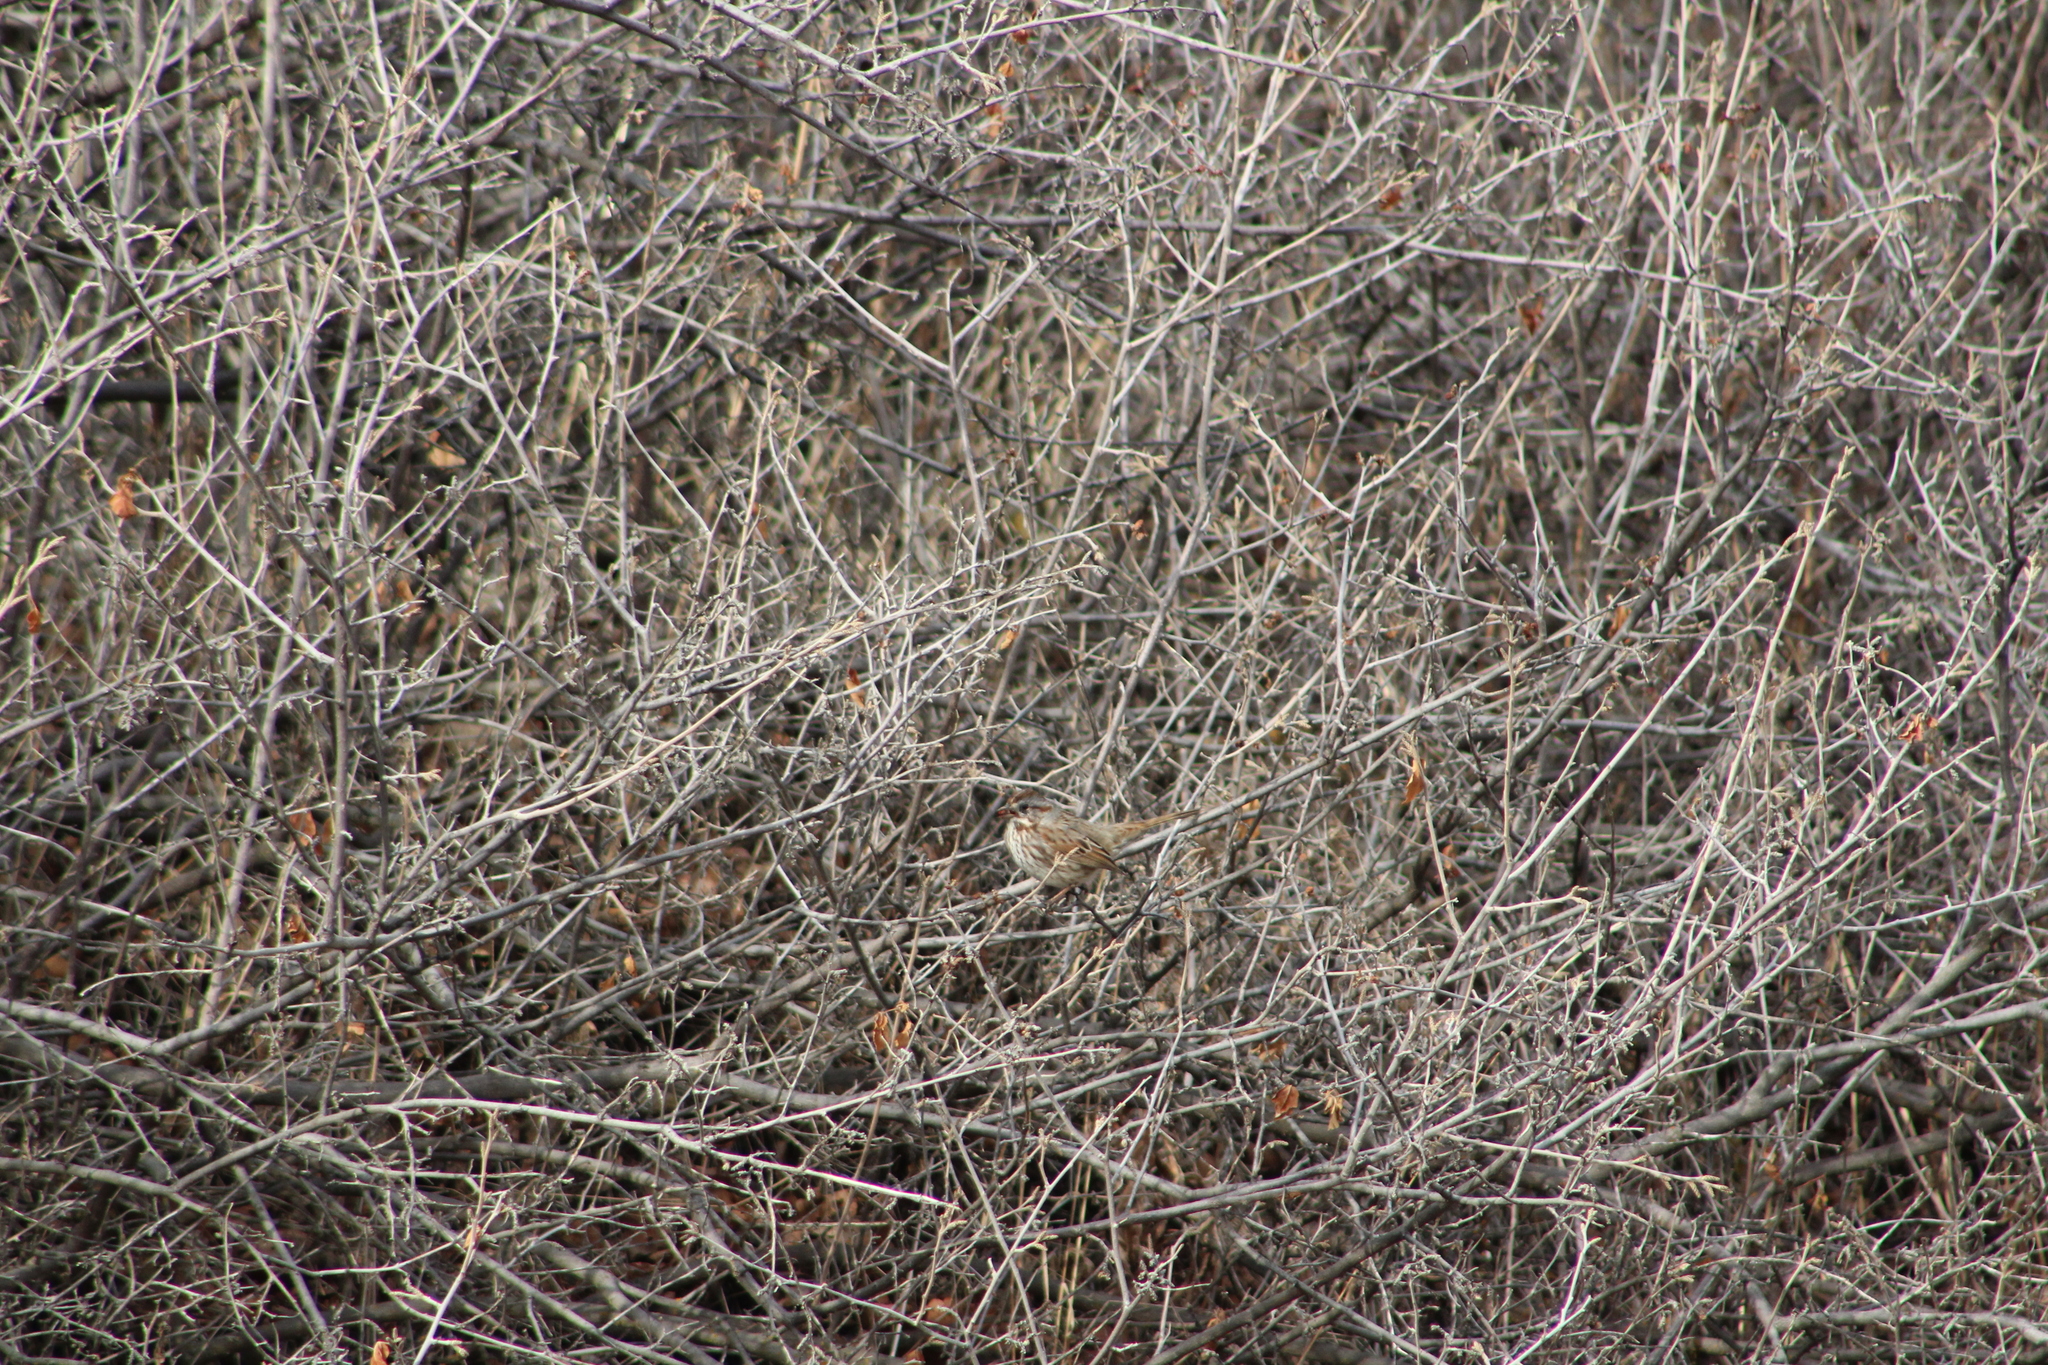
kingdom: Animalia
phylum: Chordata
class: Aves
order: Passeriformes
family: Passerellidae
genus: Melospiza
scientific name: Melospiza melodia
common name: Song sparrow
